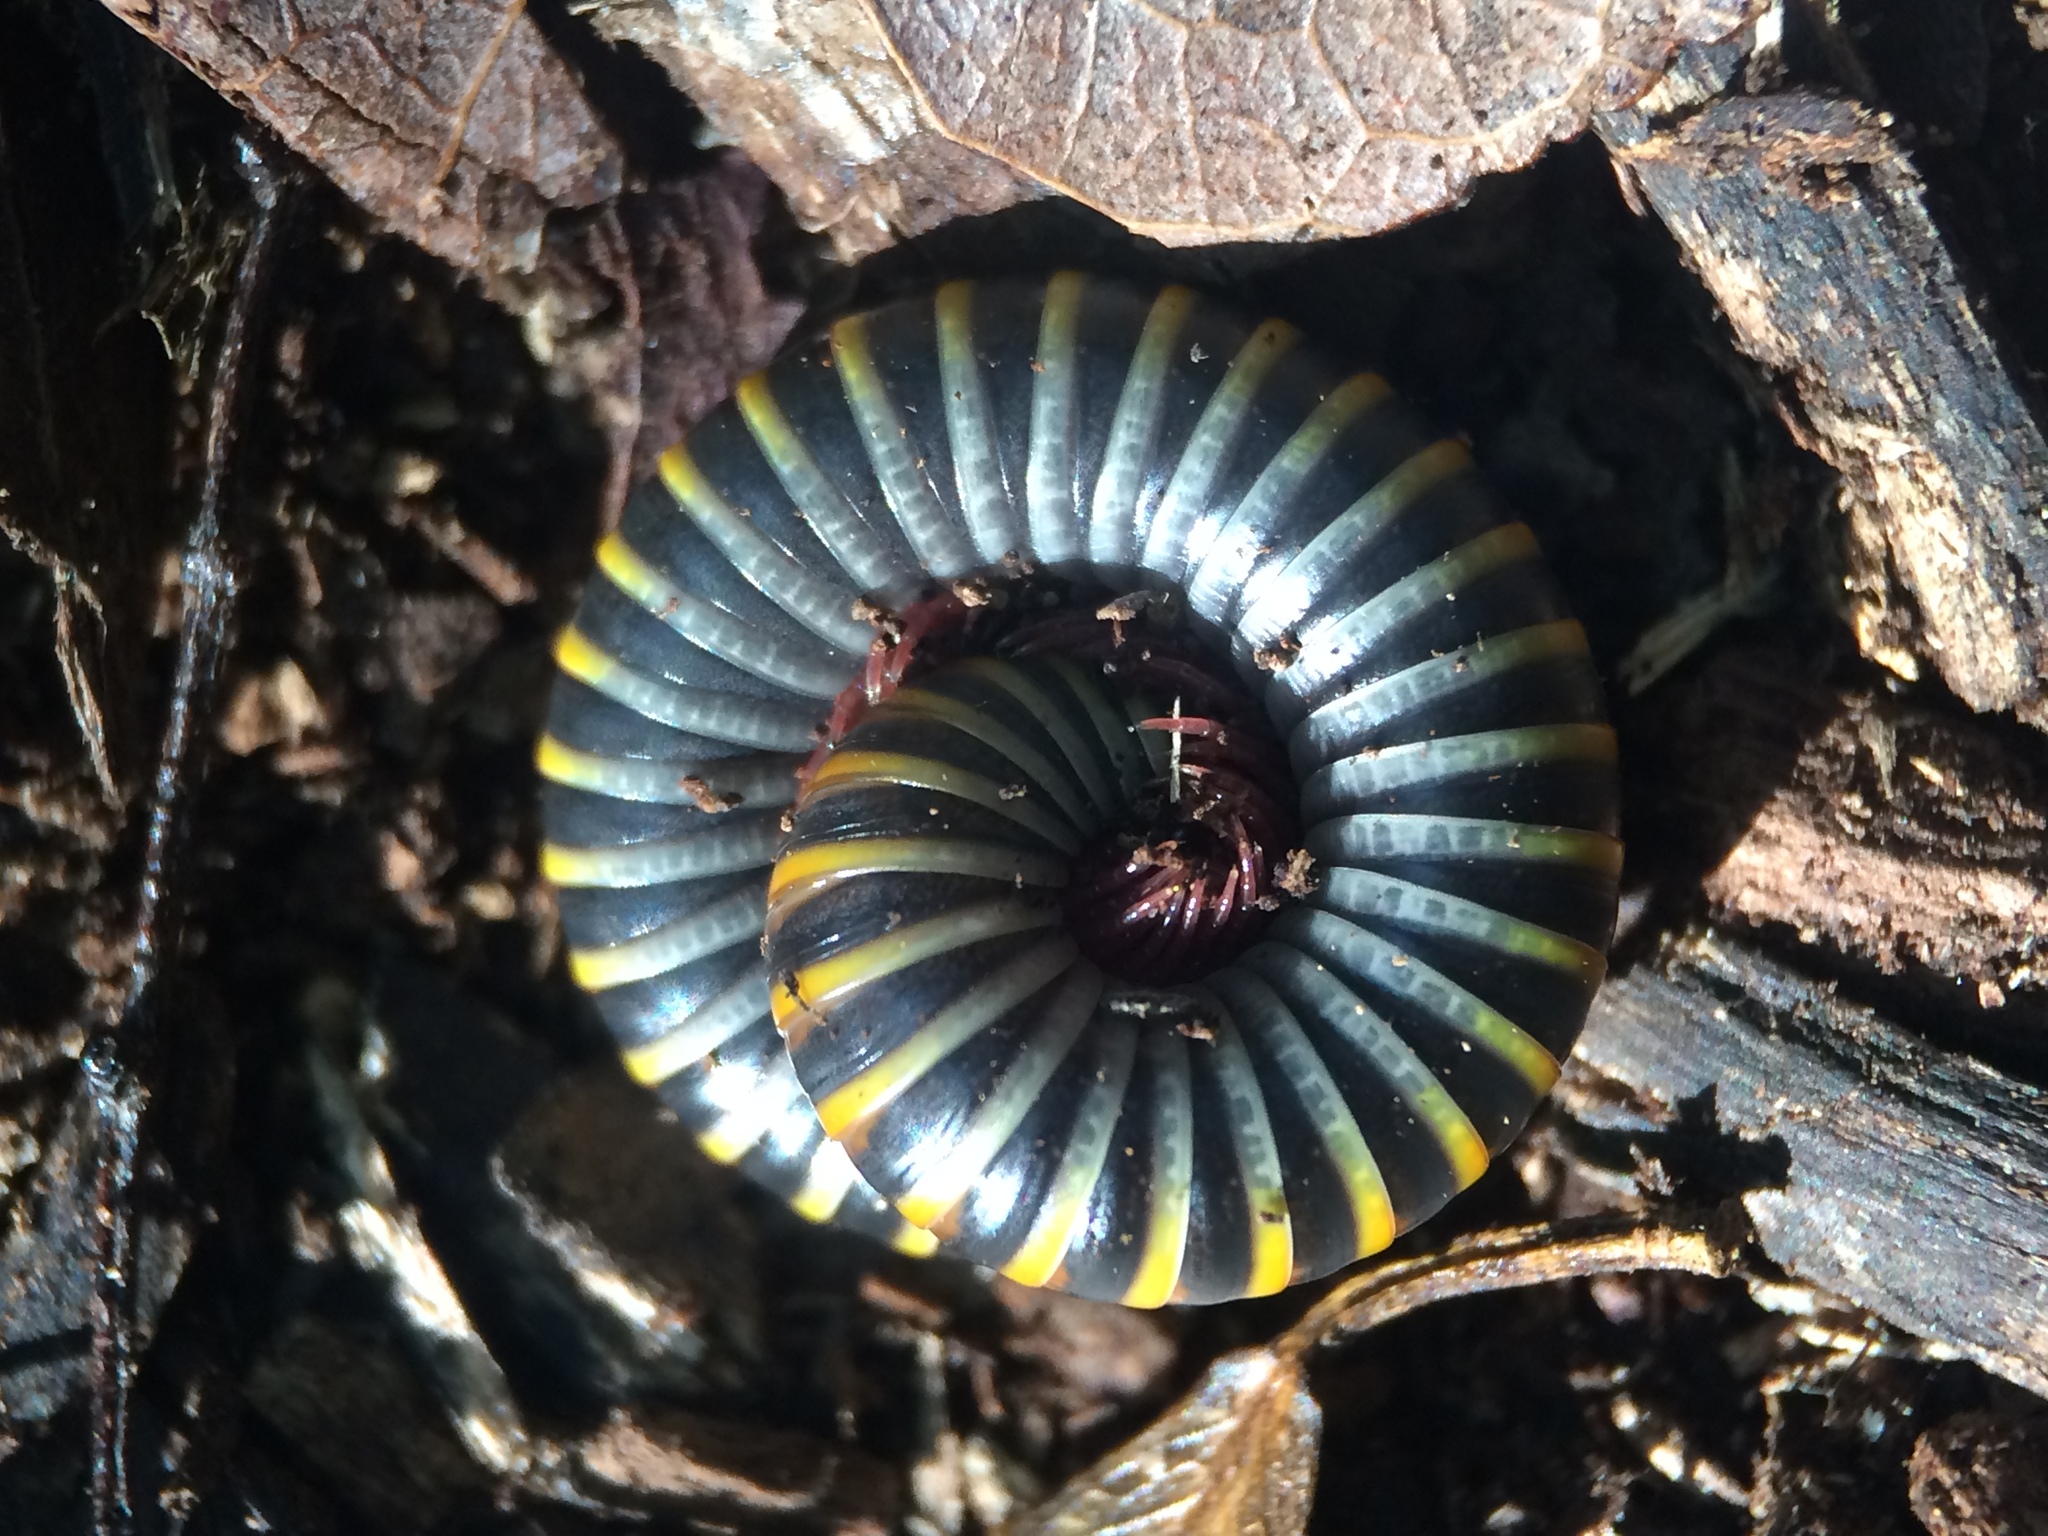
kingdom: Animalia
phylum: Arthropoda
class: Diplopoda
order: Spirobolida
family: Rhinocricidae
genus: Anadenobolus
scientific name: Anadenobolus monilicornis
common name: Caribbean millipede
